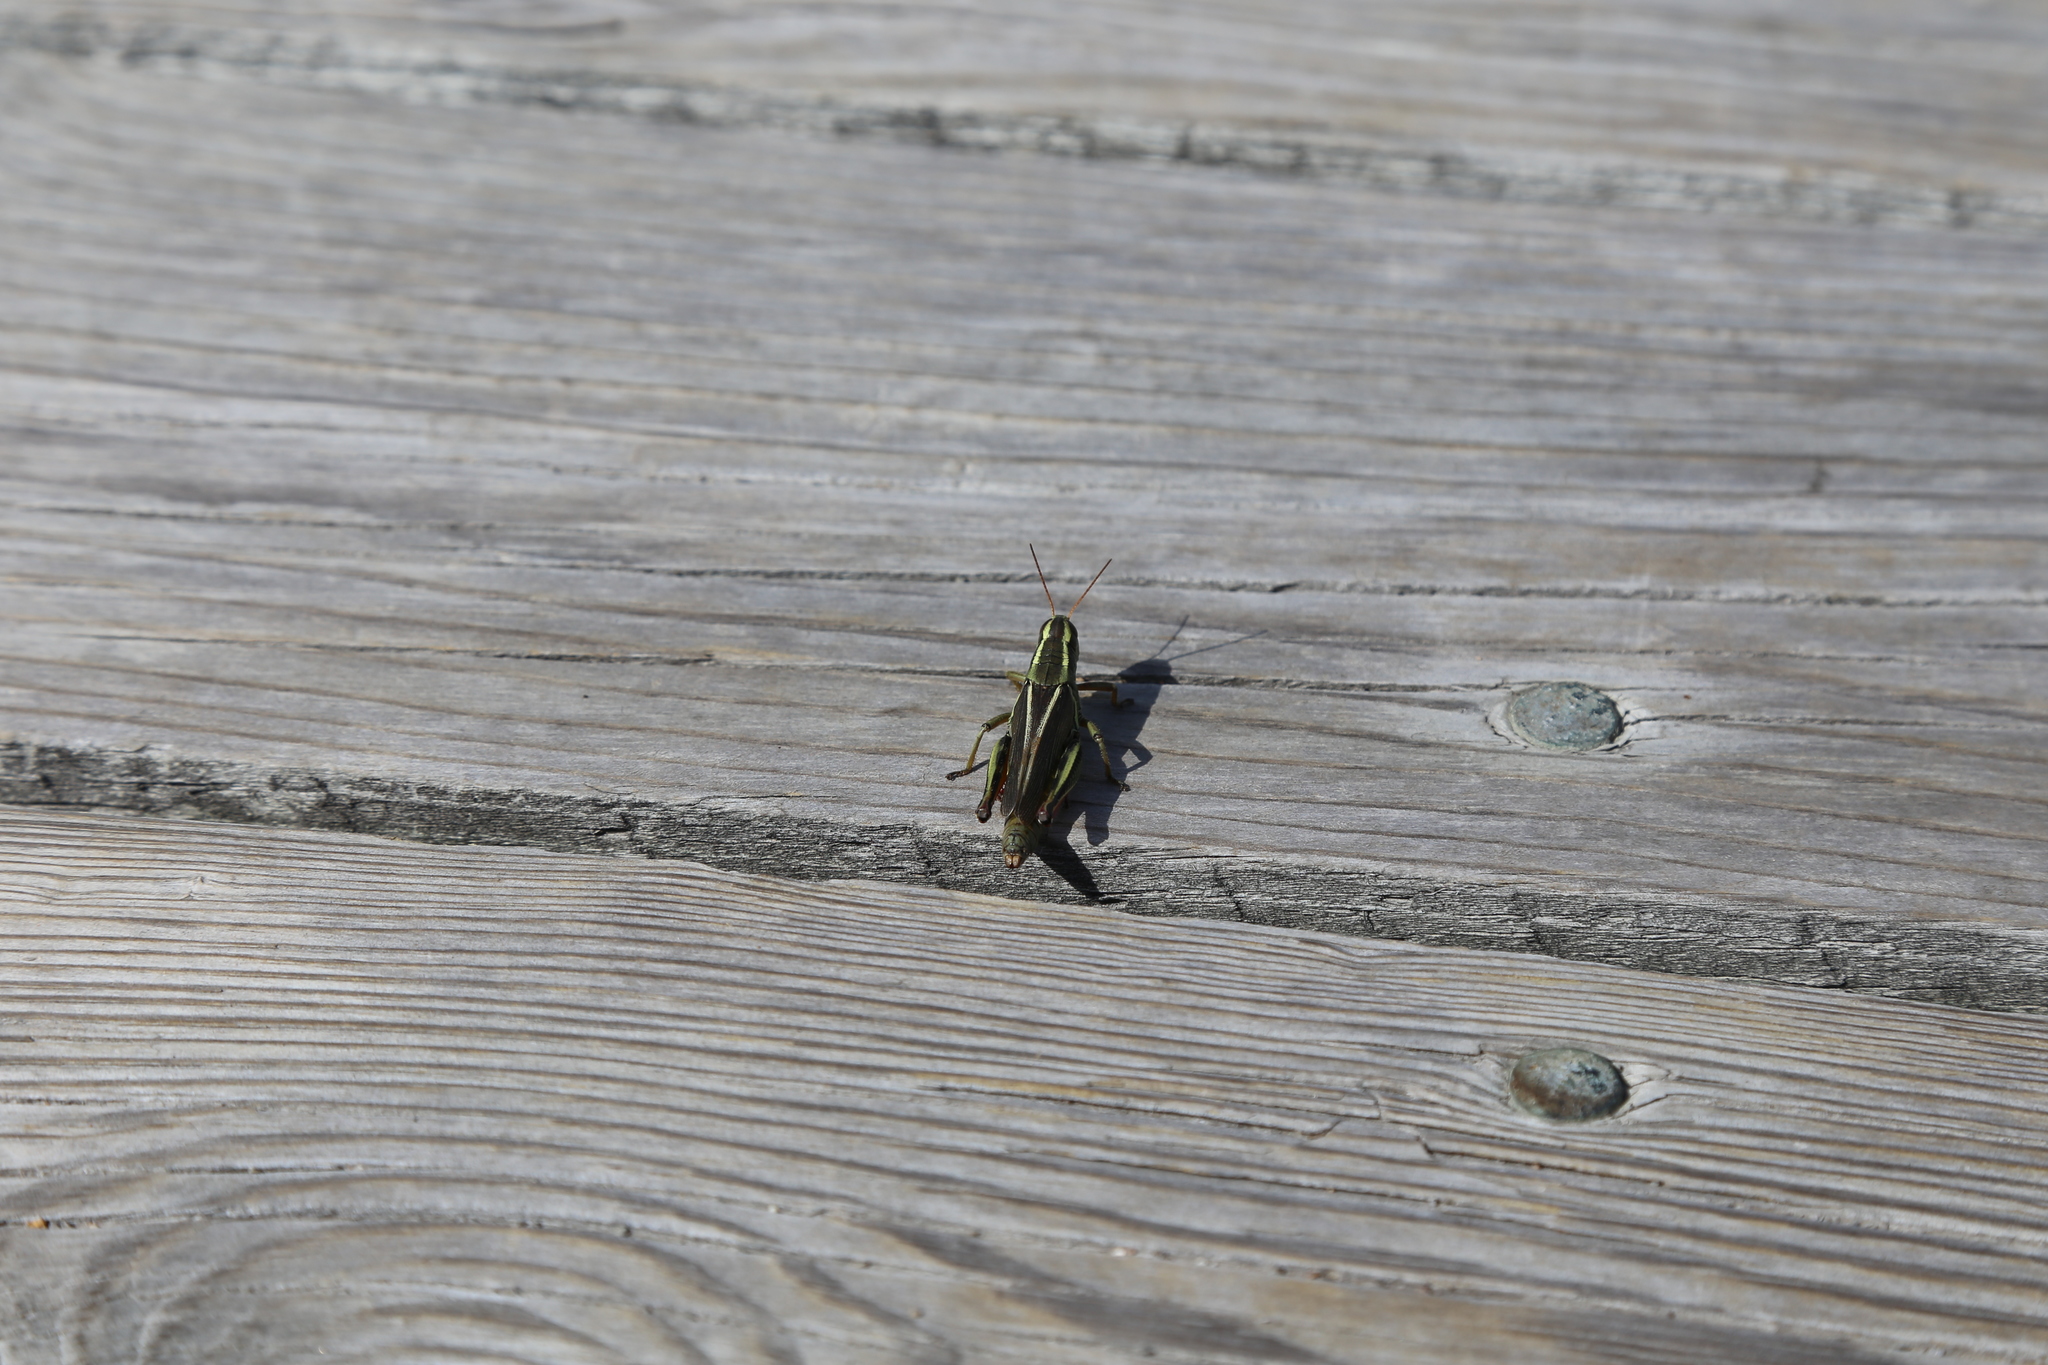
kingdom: Animalia
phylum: Arthropoda
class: Insecta
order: Orthoptera
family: Acrididae
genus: Melanoplus
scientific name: Melanoplus bivittatus
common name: Two-striped grasshopper
